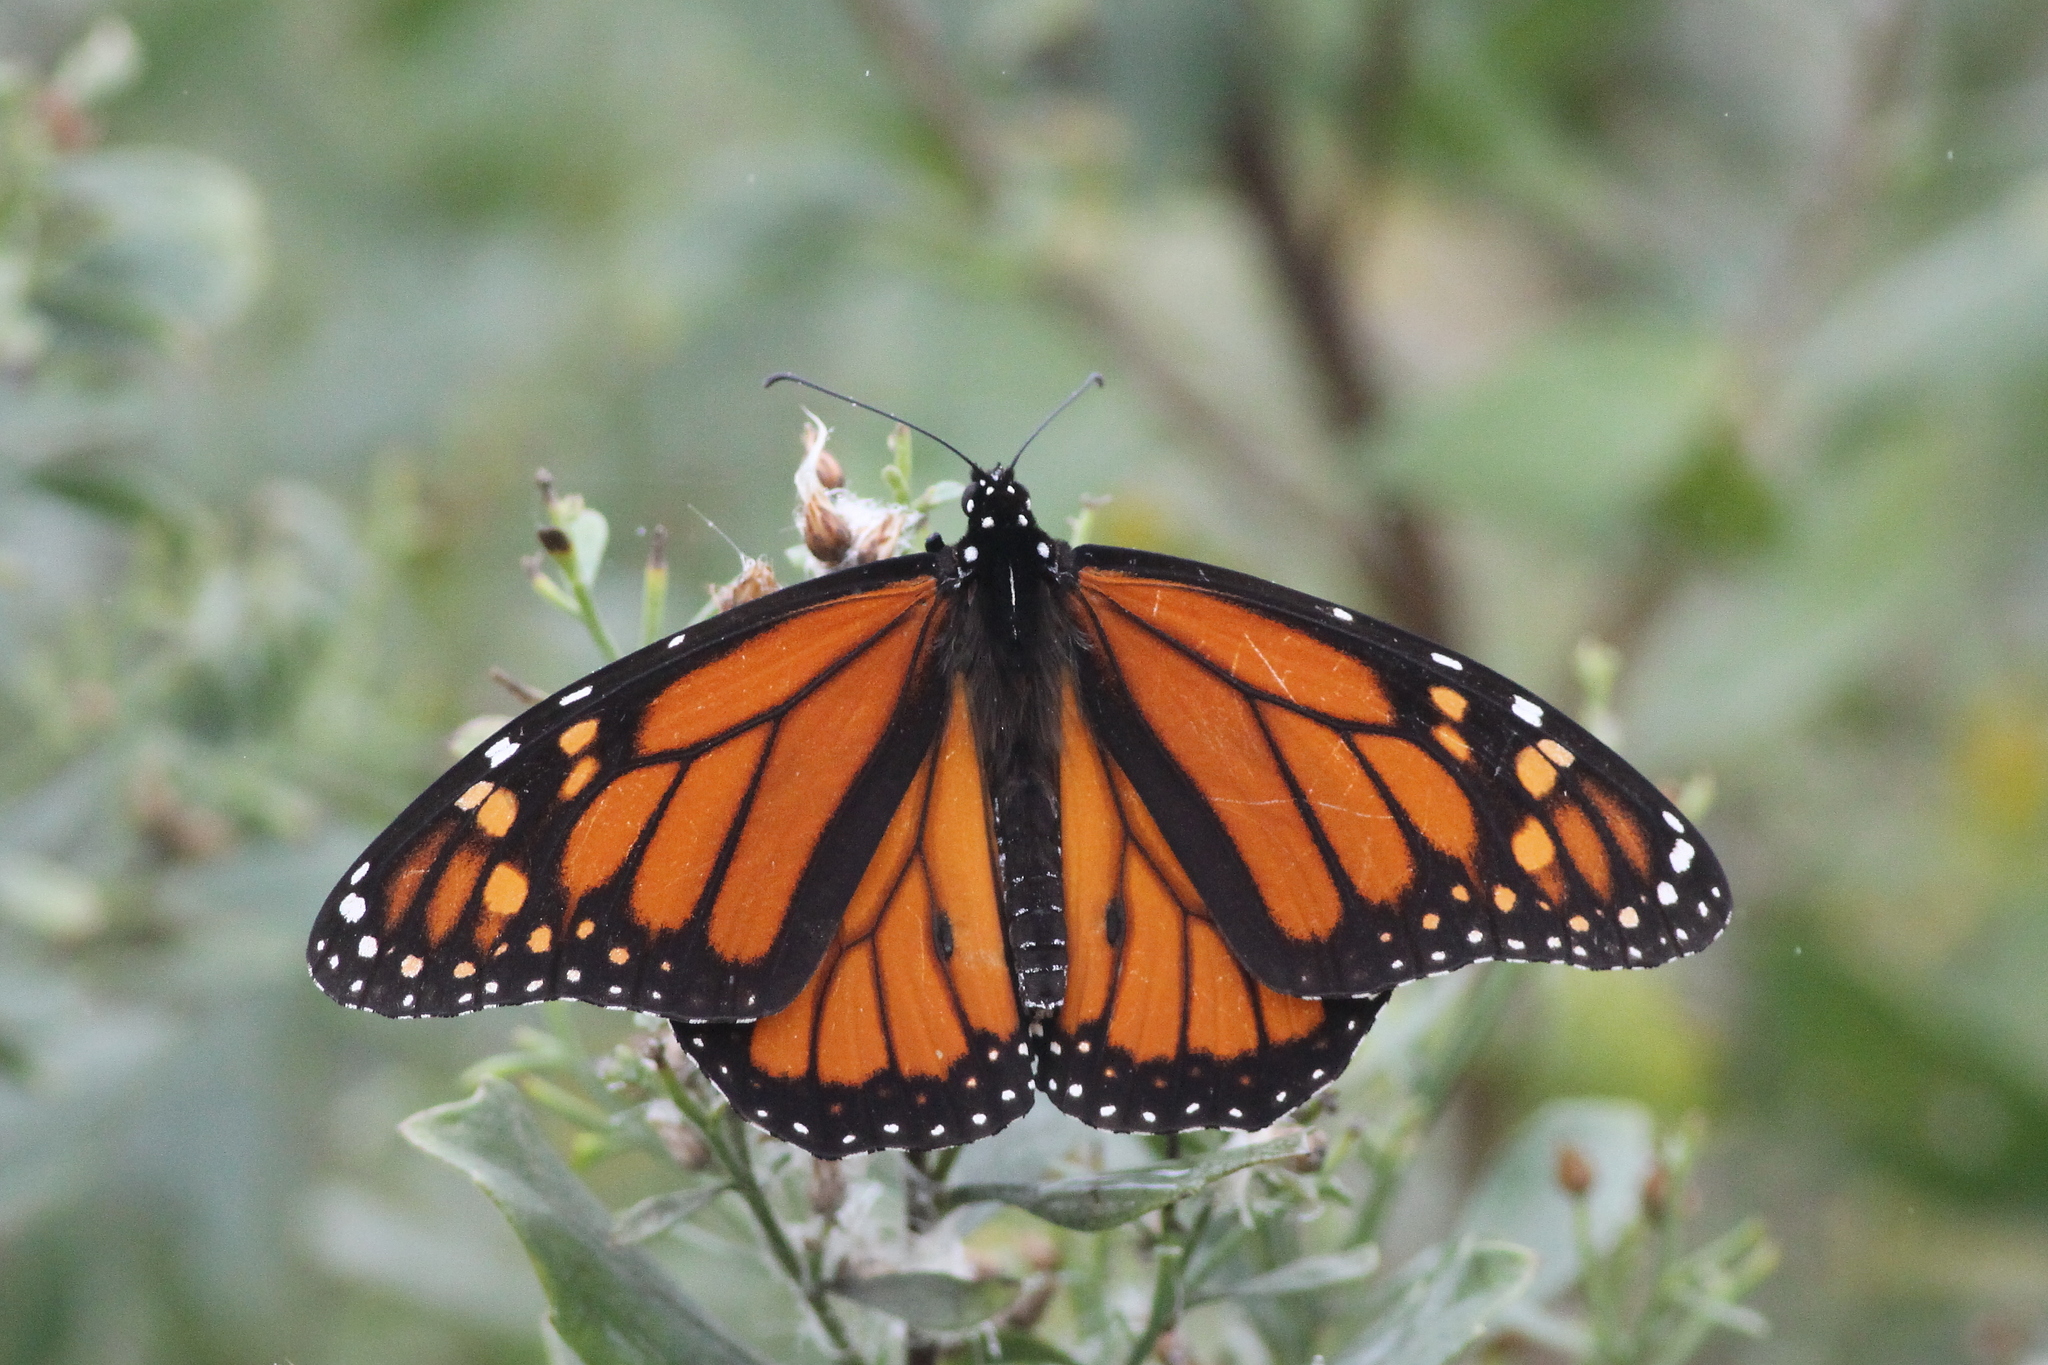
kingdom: Animalia
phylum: Arthropoda
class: Insecta
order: Lepidoptera
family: Nymphalidae
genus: Danaus
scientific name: Danaus plexippus
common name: Monarch
